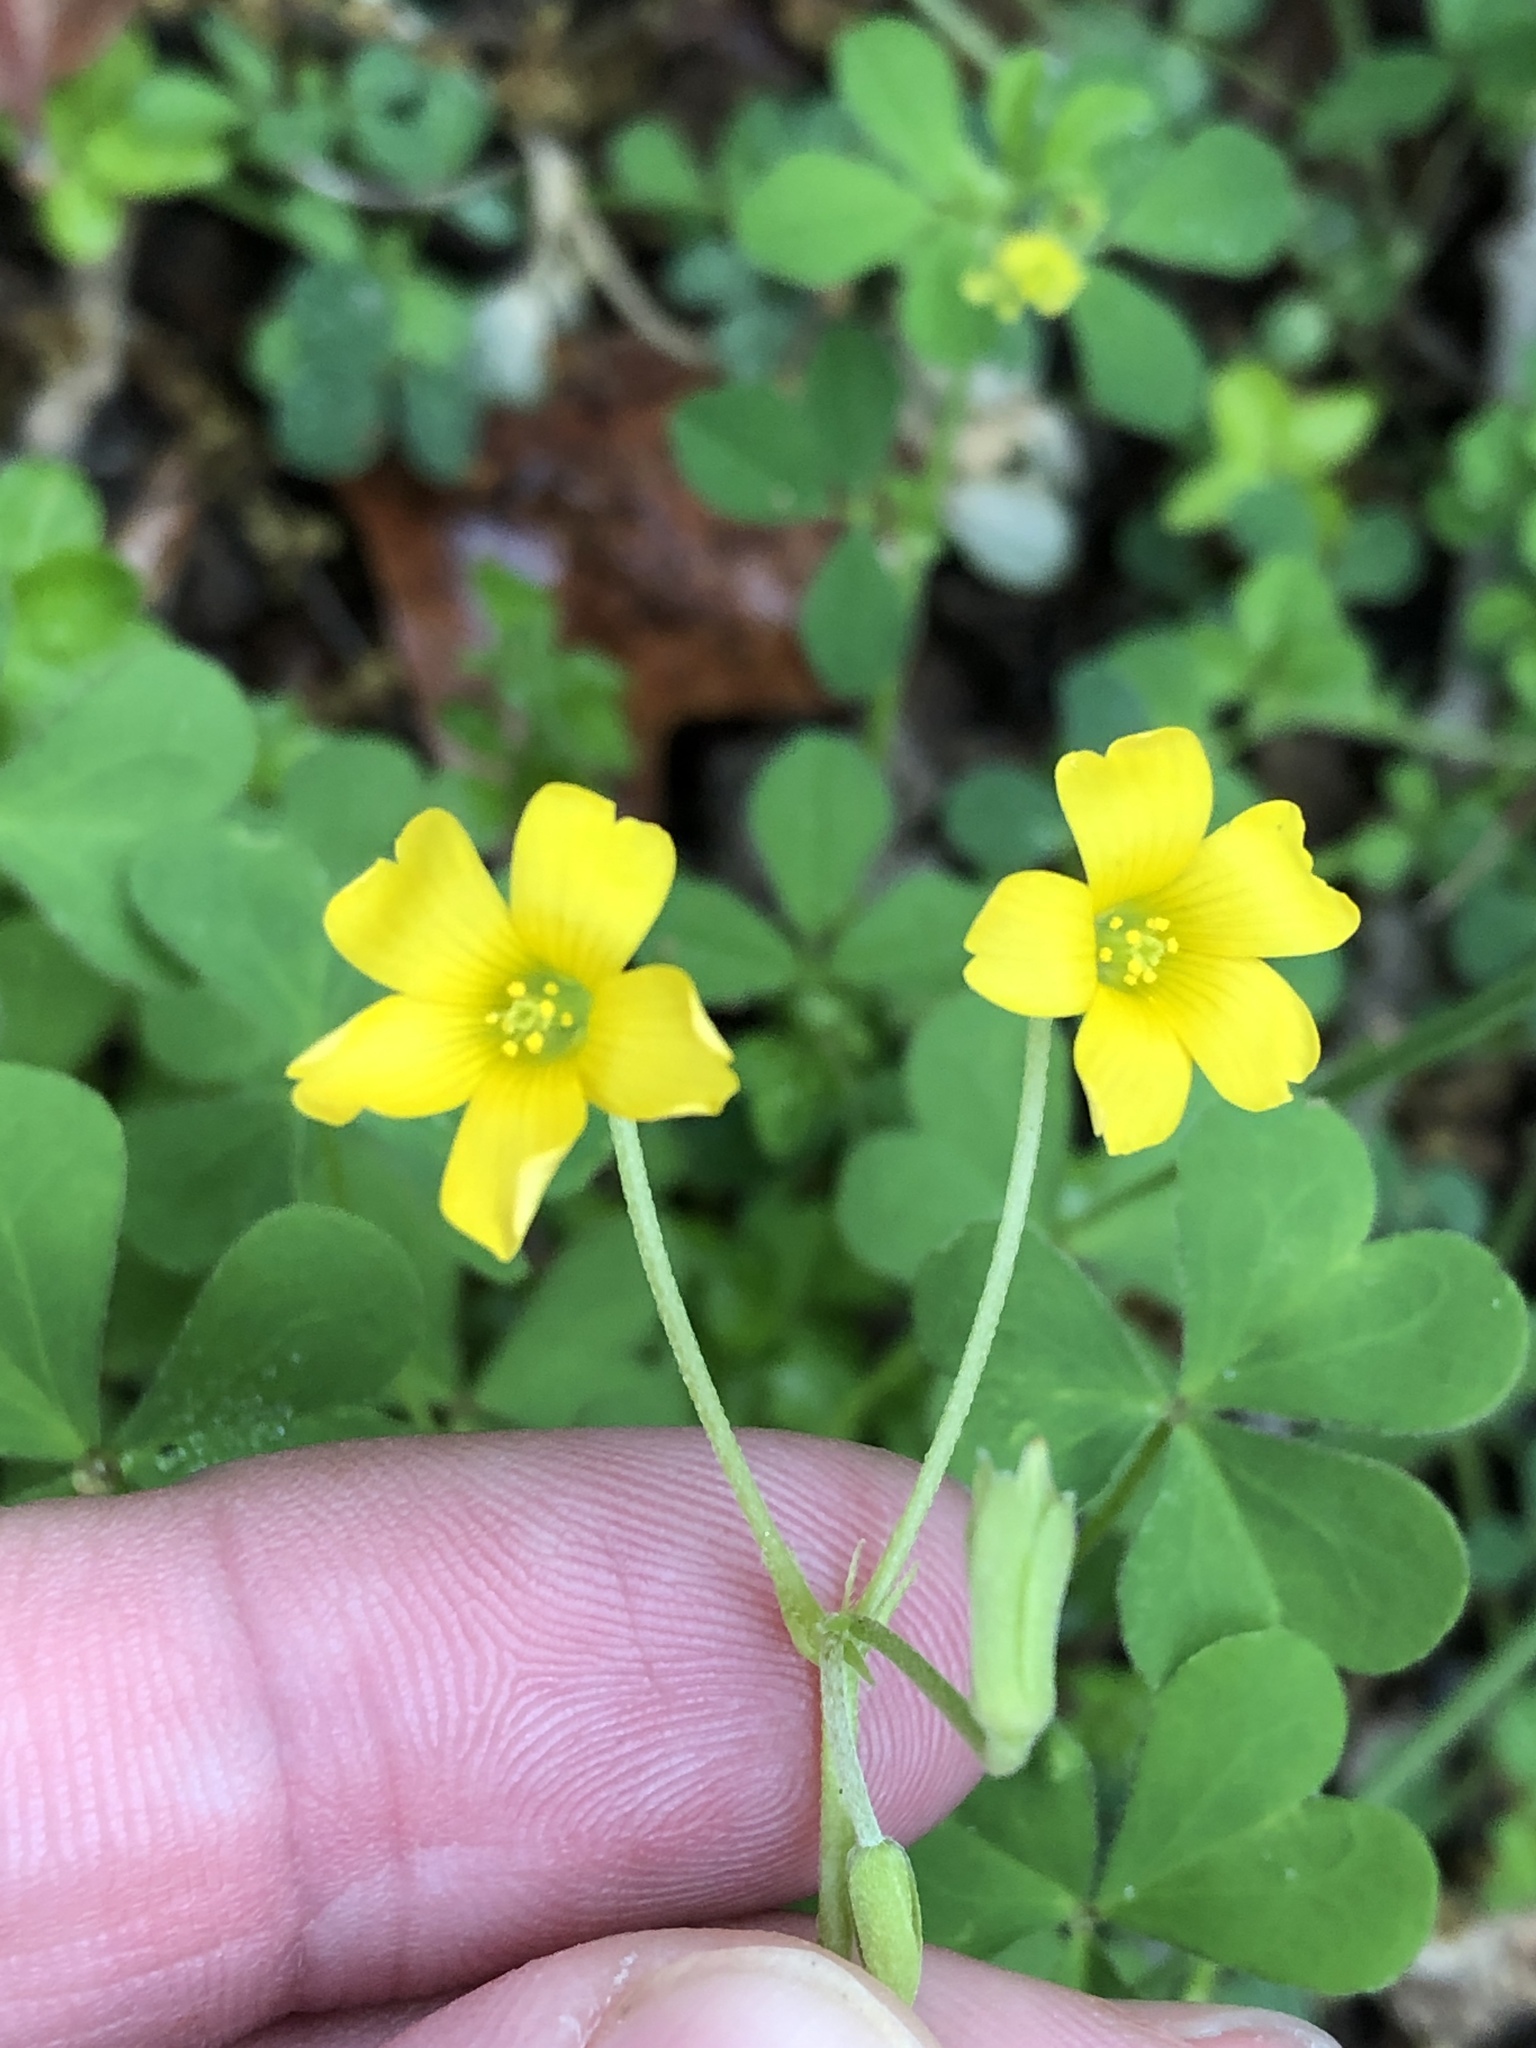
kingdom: Plantae
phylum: Tracheophyta
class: Magnoliopsida
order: Oxalidales
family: Oxalidaceae
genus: Oxalis
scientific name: Oxalis dillenii
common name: Sussex yellow-sorrel
